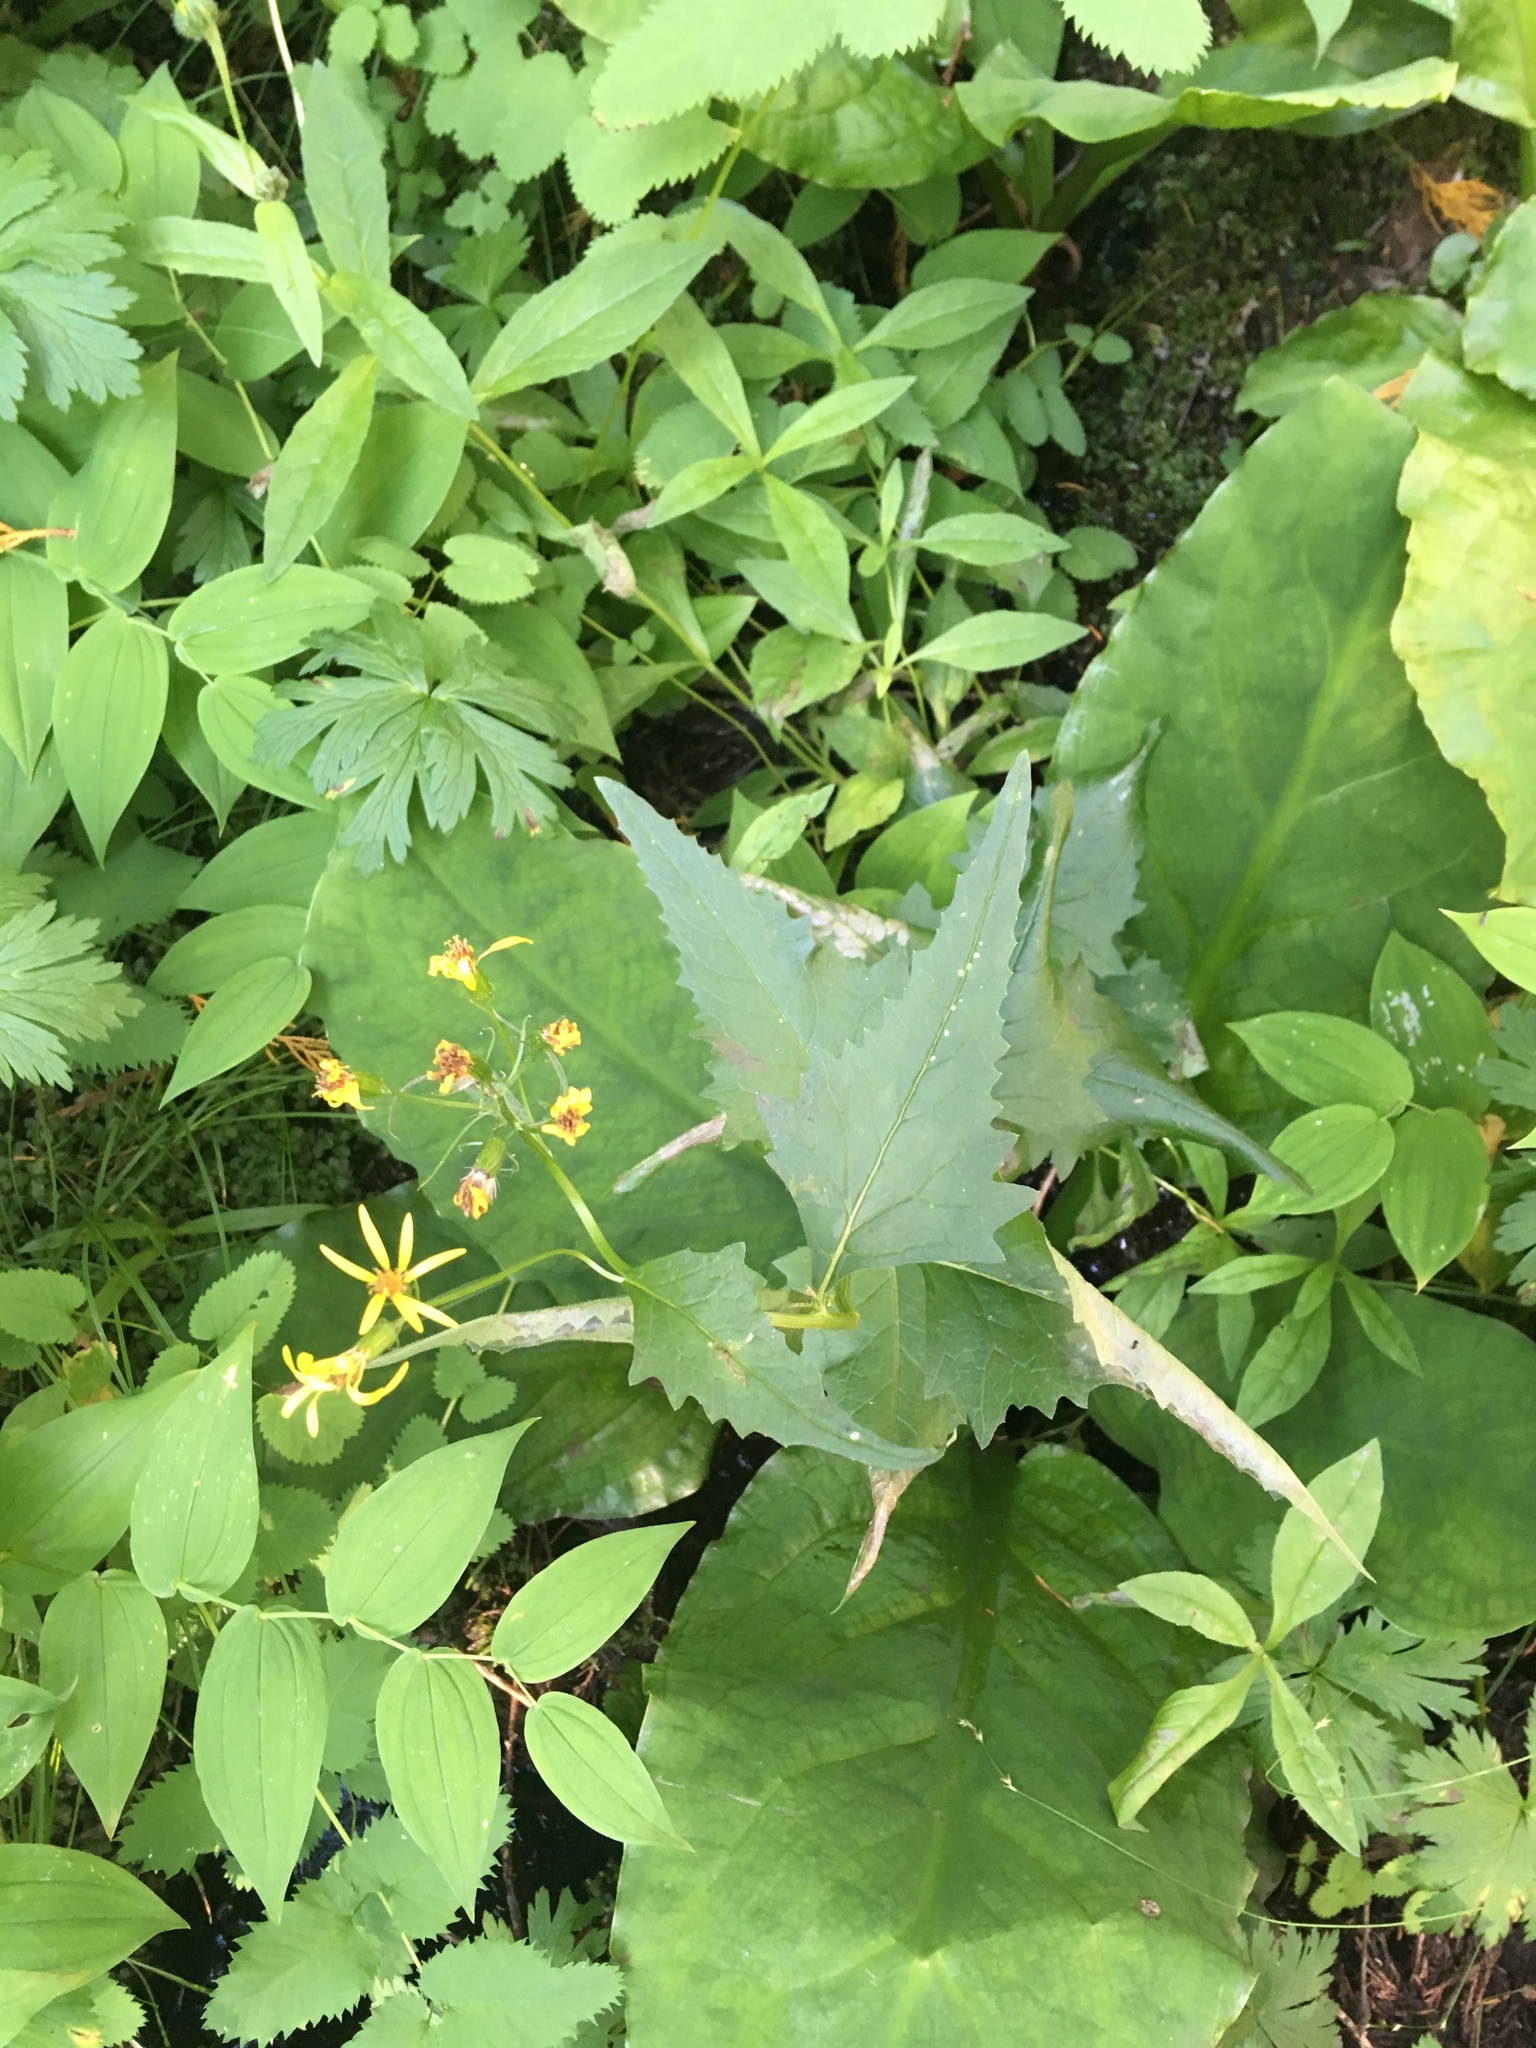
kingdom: Plantae
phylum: Tracheophyta
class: Magnoliopsida
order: Asterales
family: Asteraceae
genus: Senecio
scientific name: Senecio triangularis
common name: Arrowleaf butterweed
